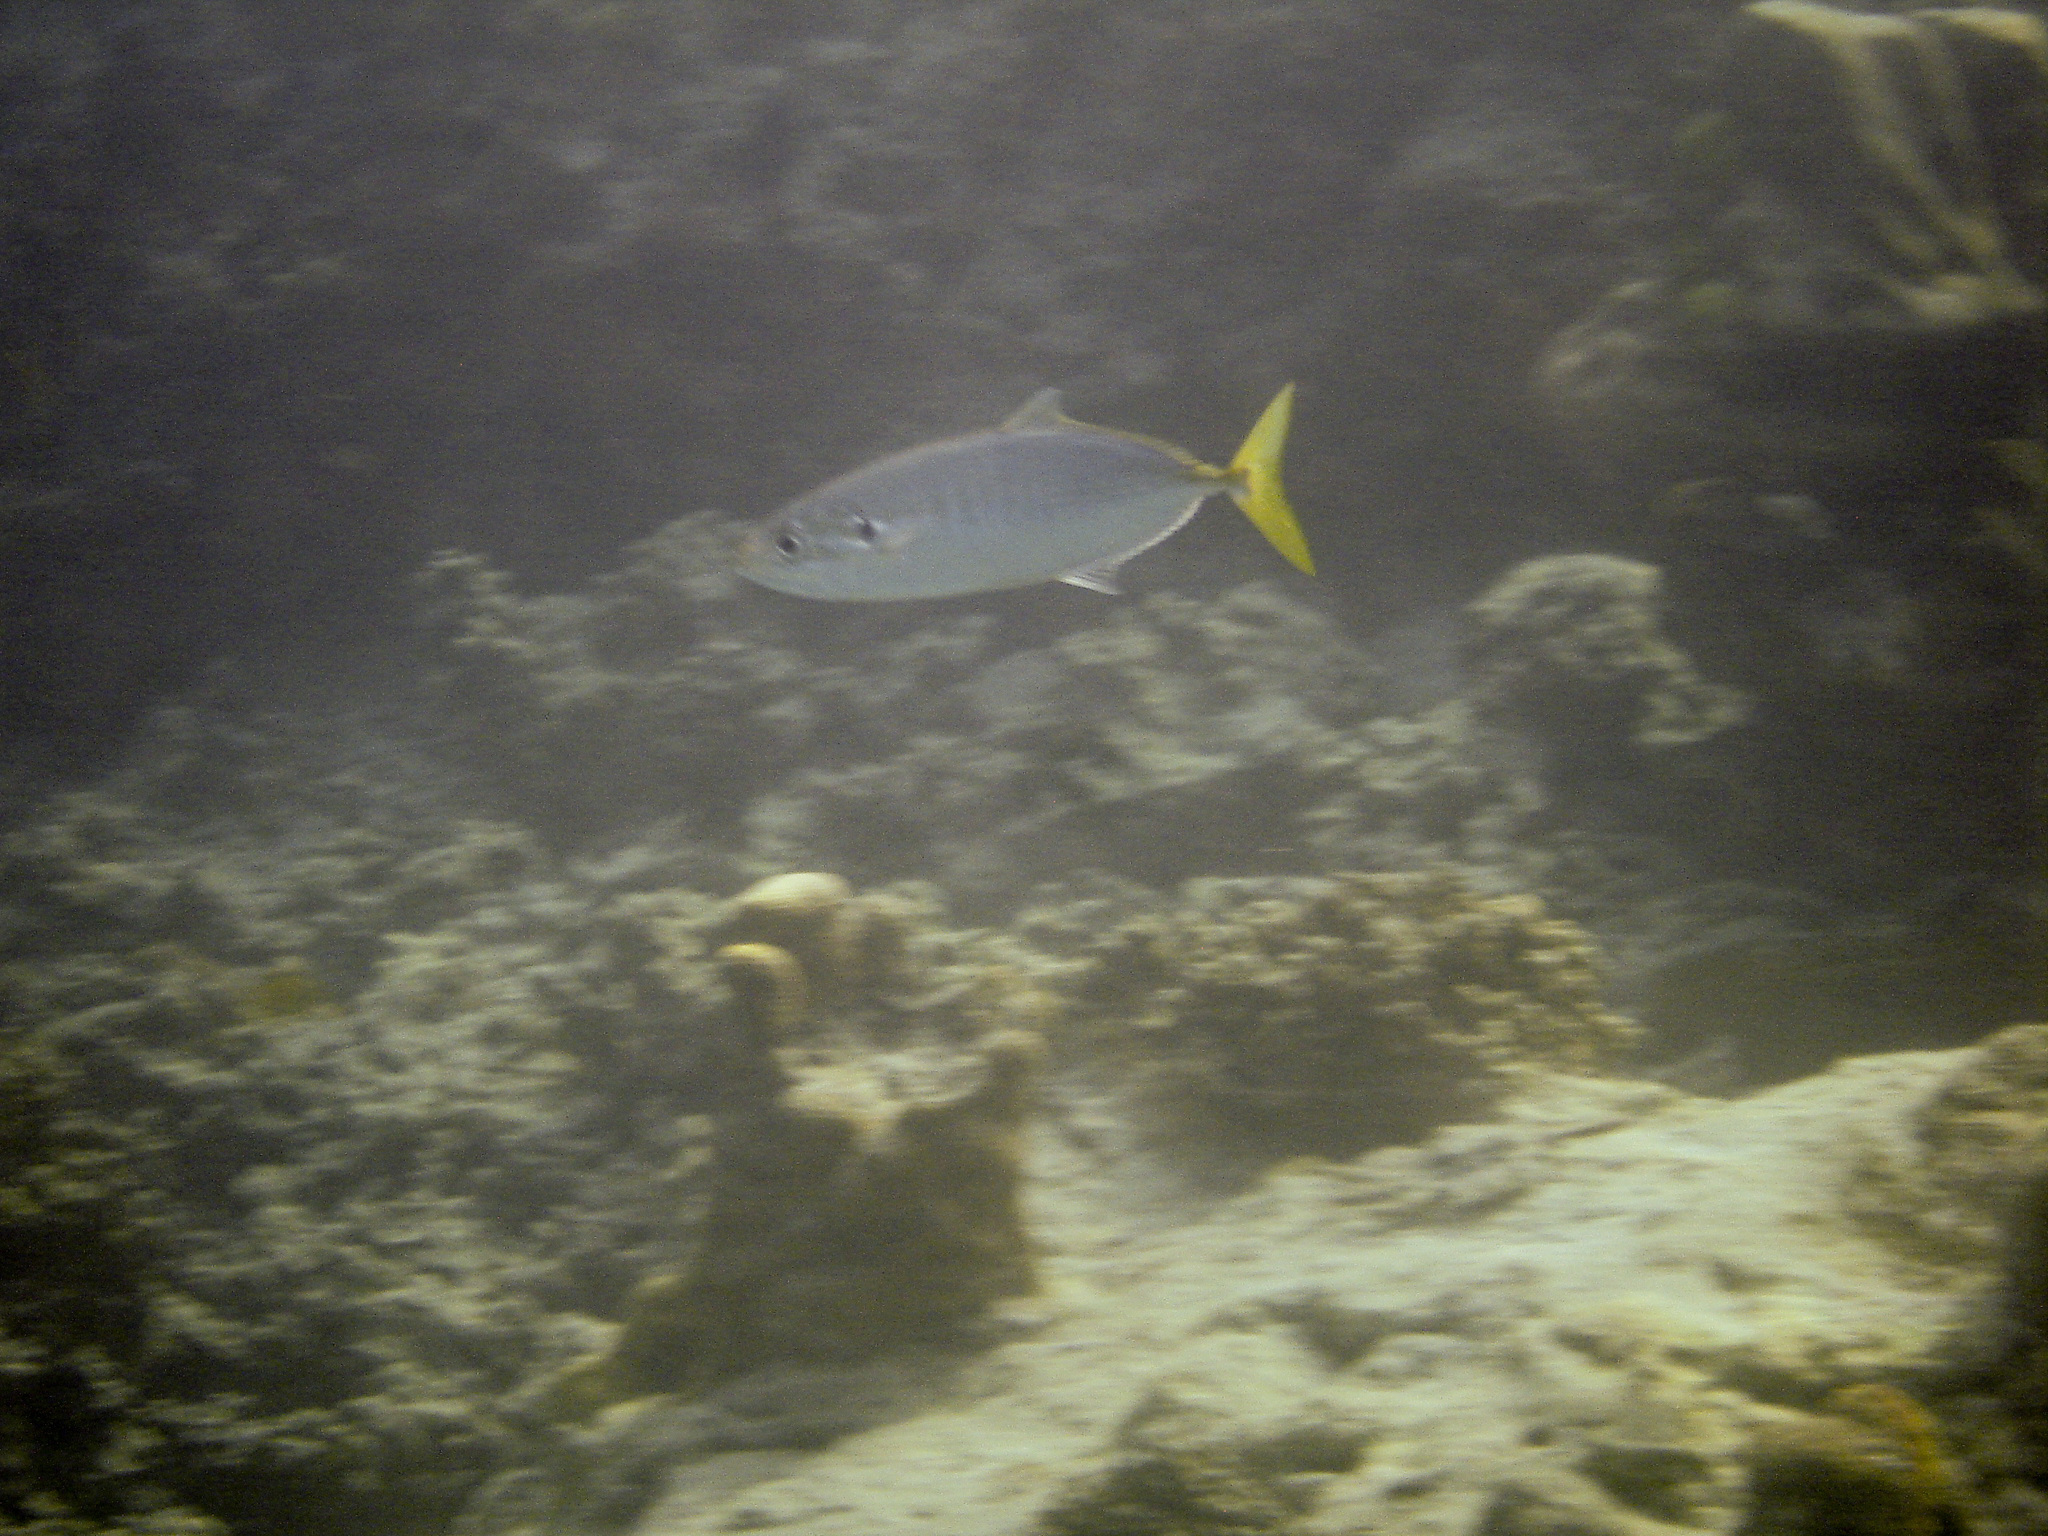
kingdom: Animalia
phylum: Chordata
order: Perciformes
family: Carangidae
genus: Atule
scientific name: Atule mate
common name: Yellowtail scad
